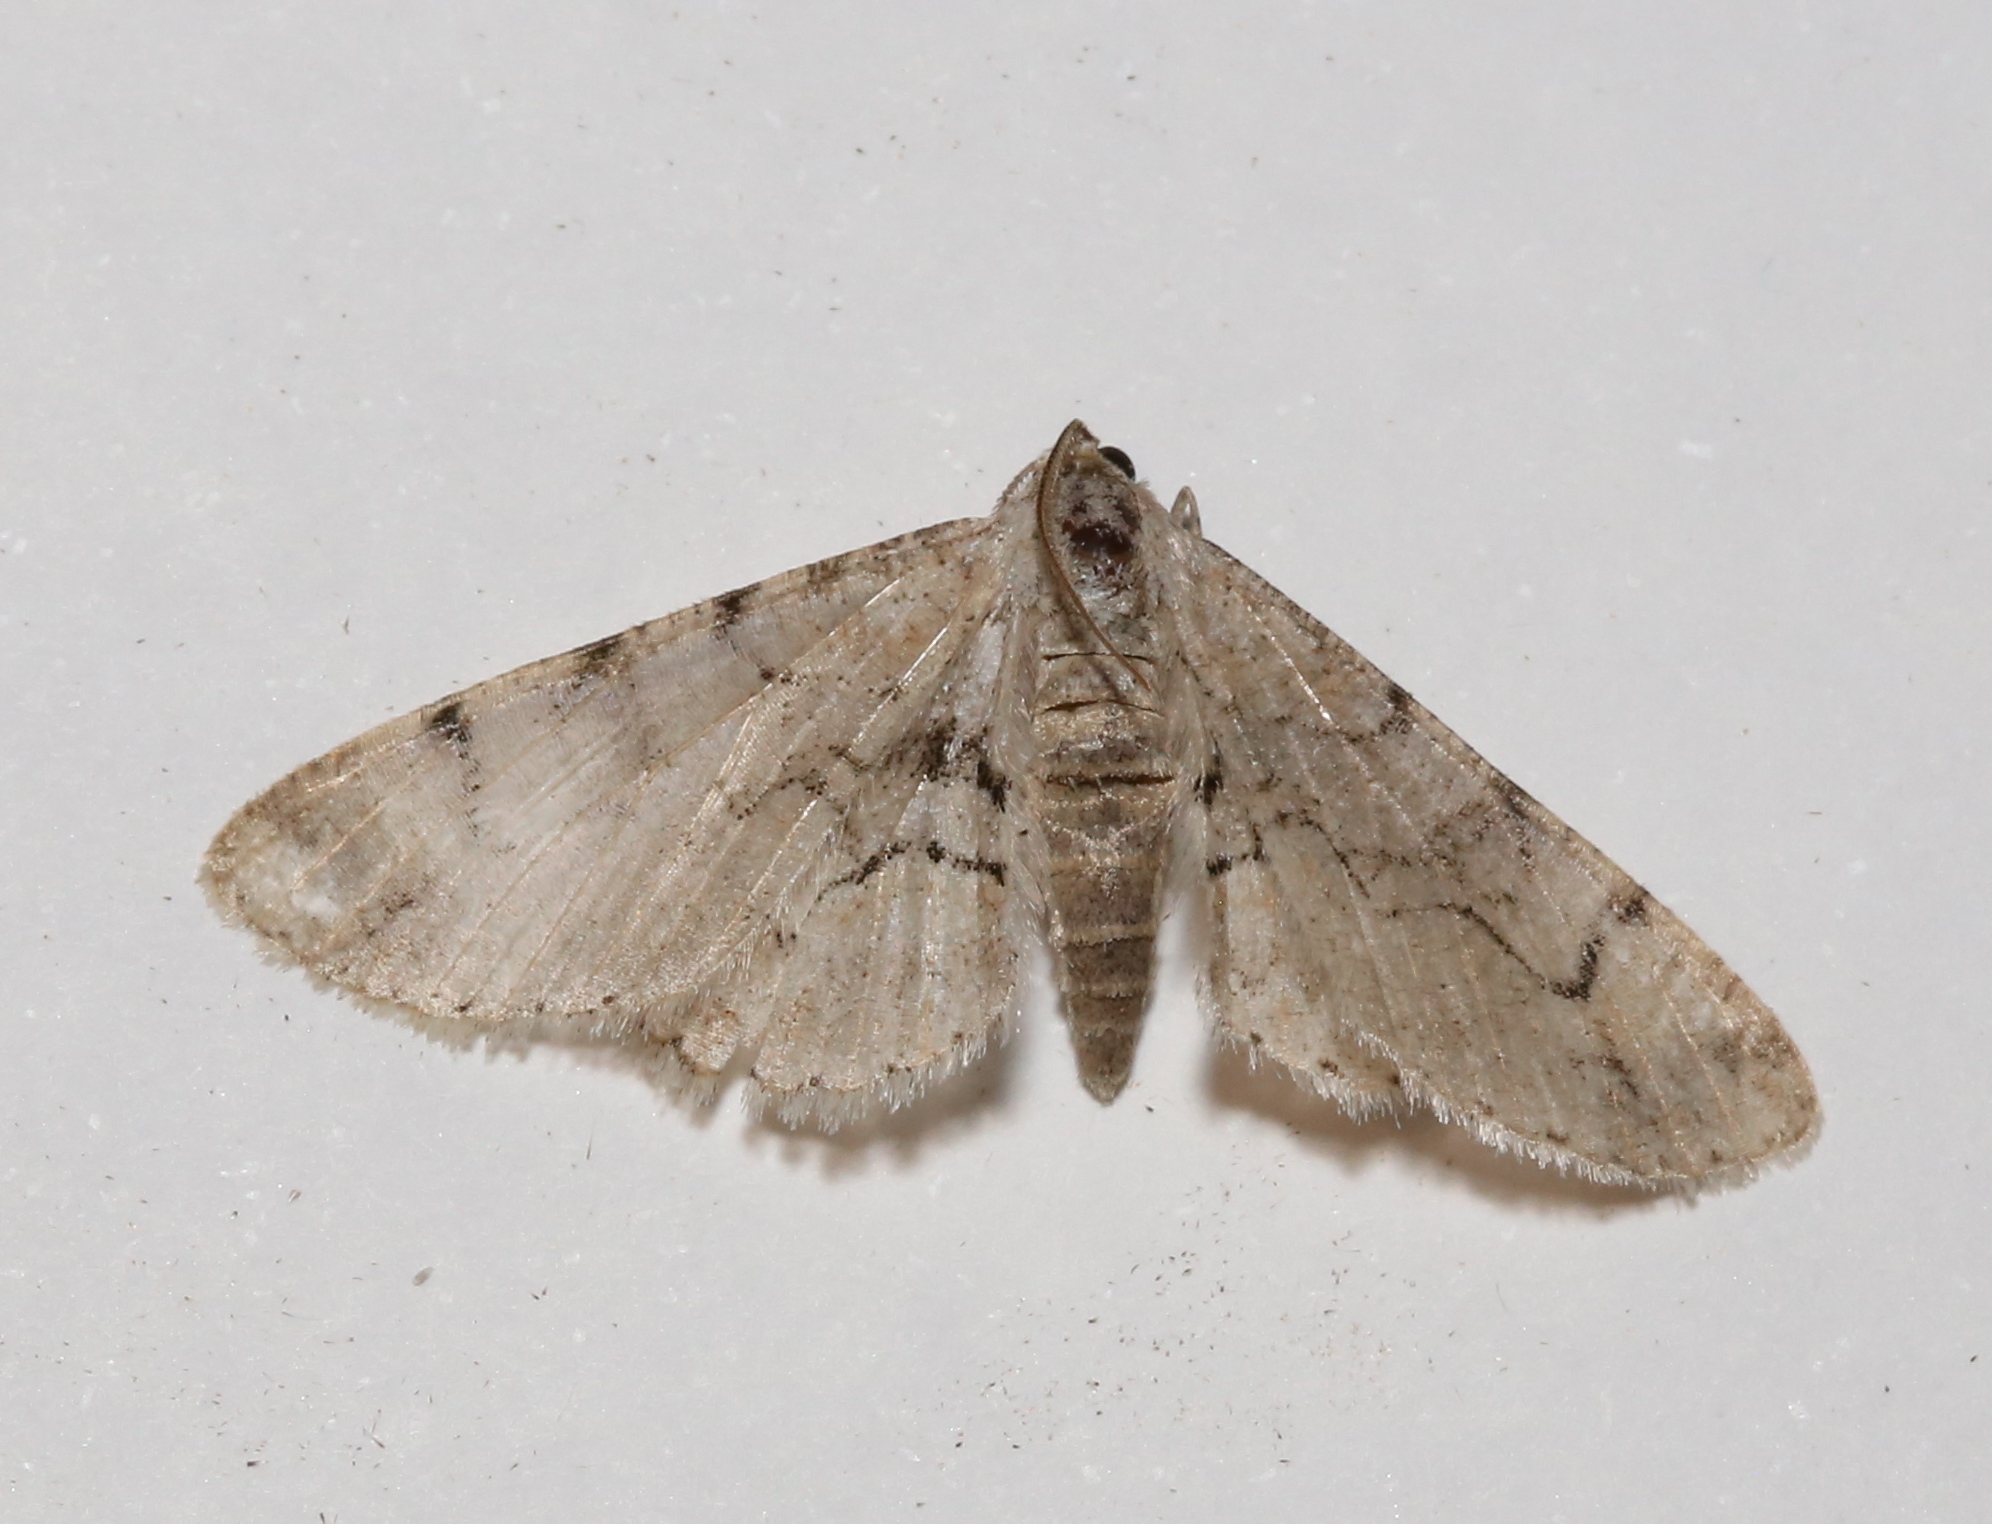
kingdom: Animalia
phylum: Arthropoda
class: Insecta
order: Lepidoptera
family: Geometridae
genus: Iridopsis
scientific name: Iridopsis larvaria
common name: Bent-line gray
